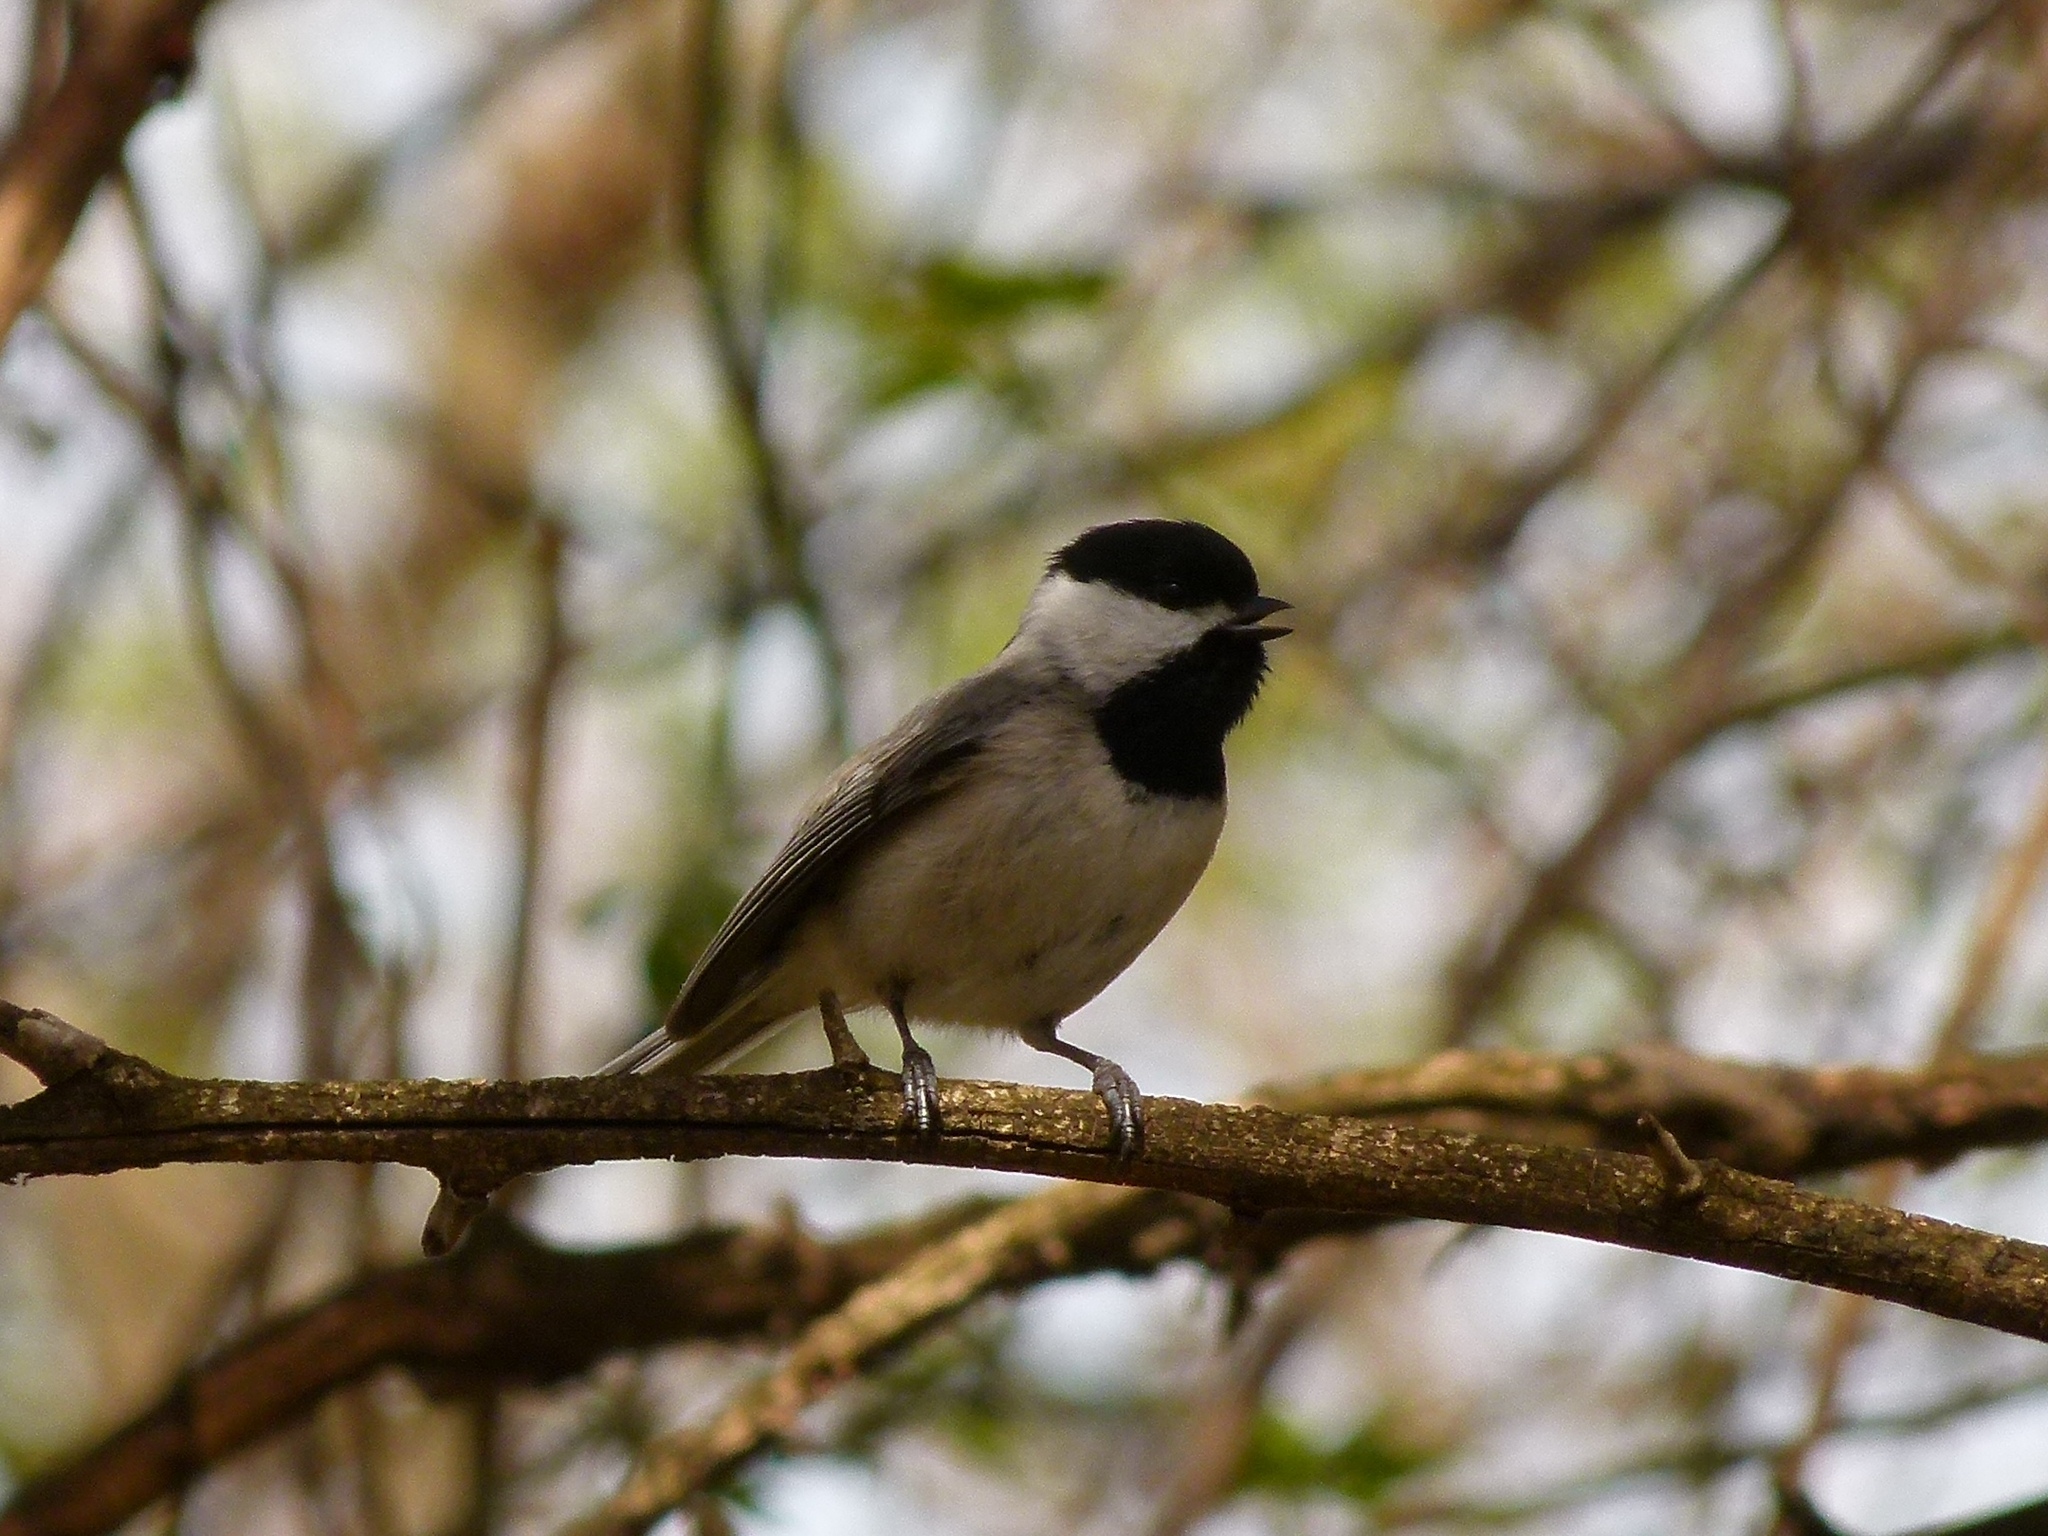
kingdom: Animalia
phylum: Chordata
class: Aves
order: Passeriformes
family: Paridae
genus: Poecile
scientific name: Poecile atricapillus
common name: Black-capped chickadee
